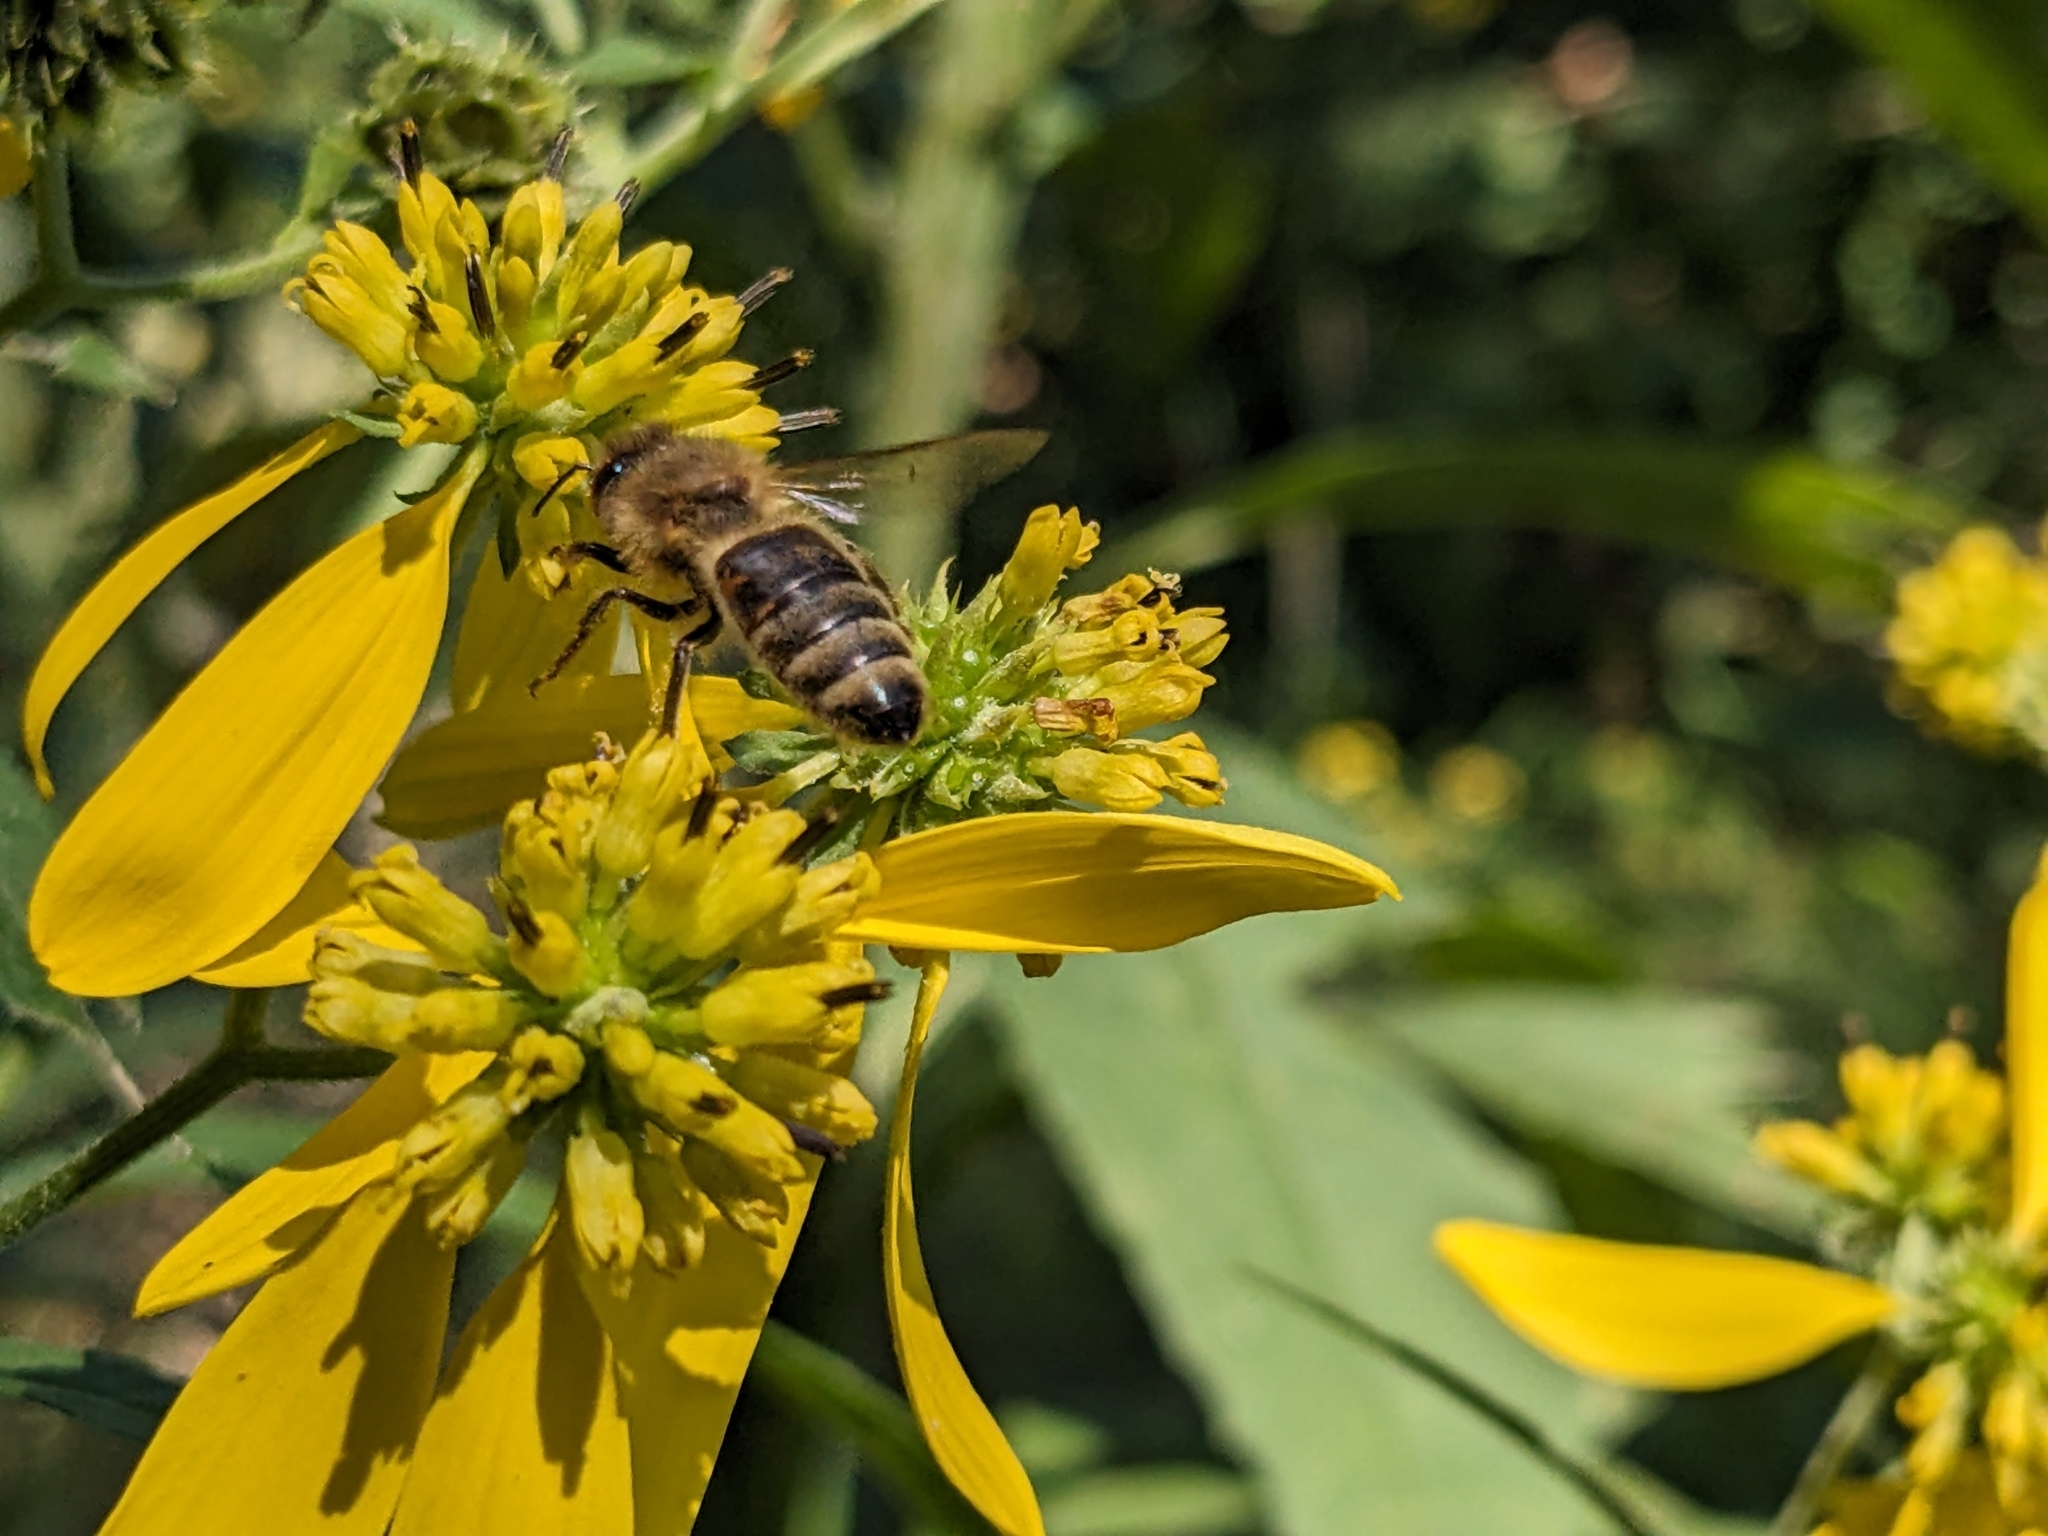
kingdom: Animalia
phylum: Arthropoda
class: Insecta
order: Hymenoptera
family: Apidae
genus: Apis
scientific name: Apis mellifera
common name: Honey bee
